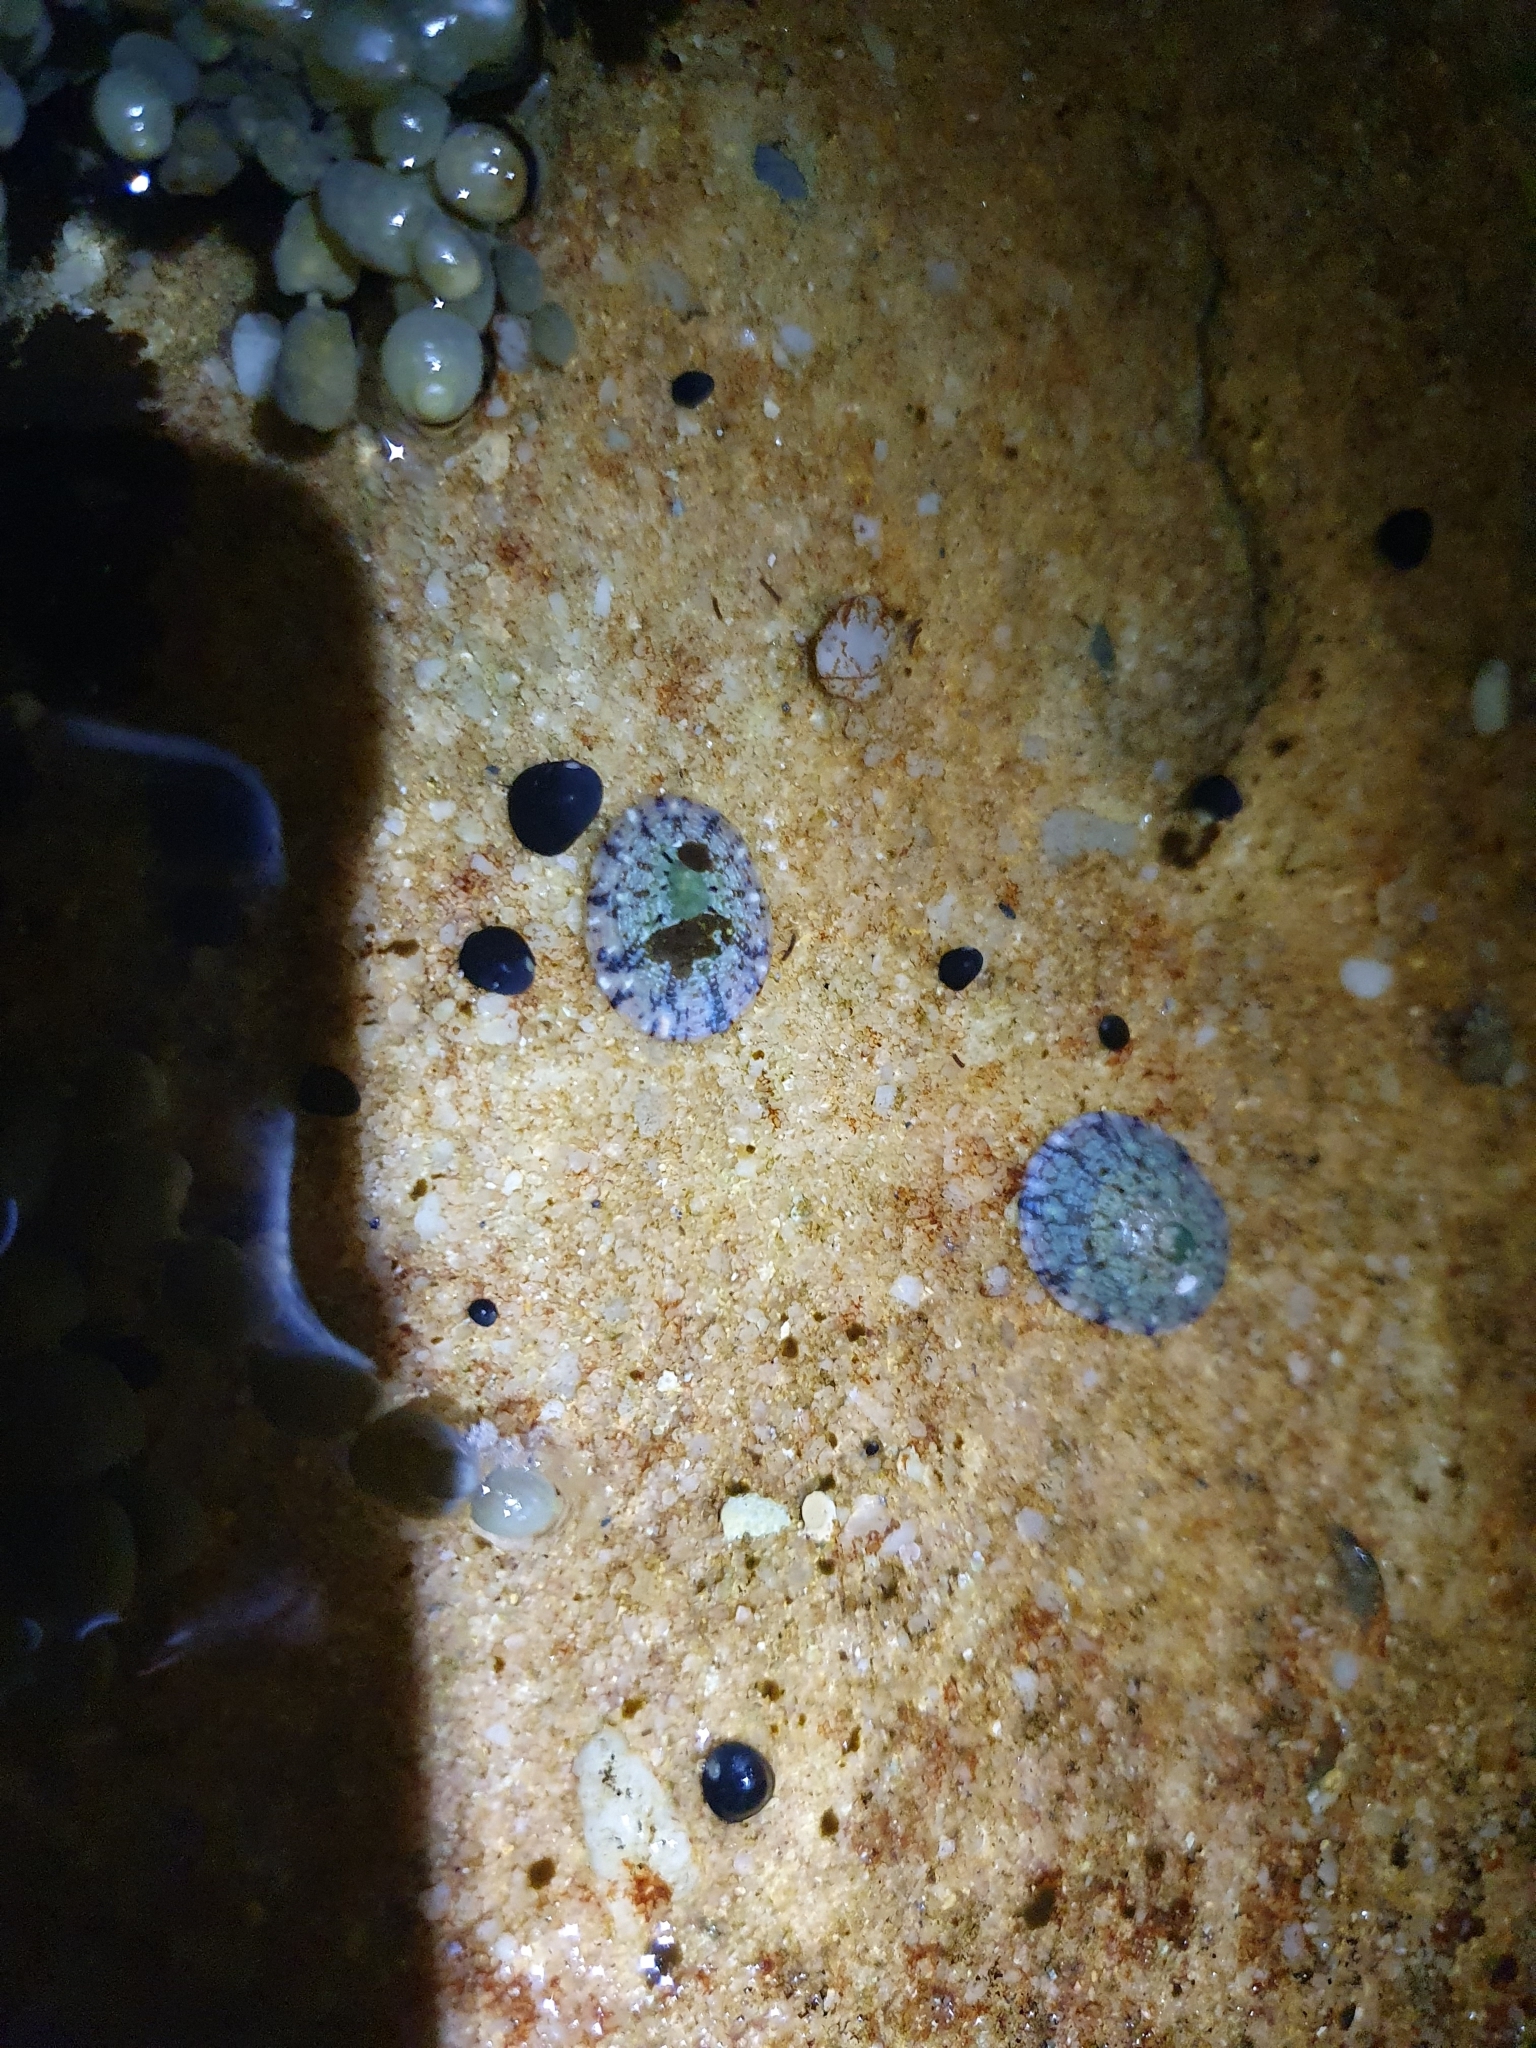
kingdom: Animalia
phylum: Mollusca
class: Gastropoda
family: Nacellidae
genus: Cellana
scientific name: Cellana tramoserica
